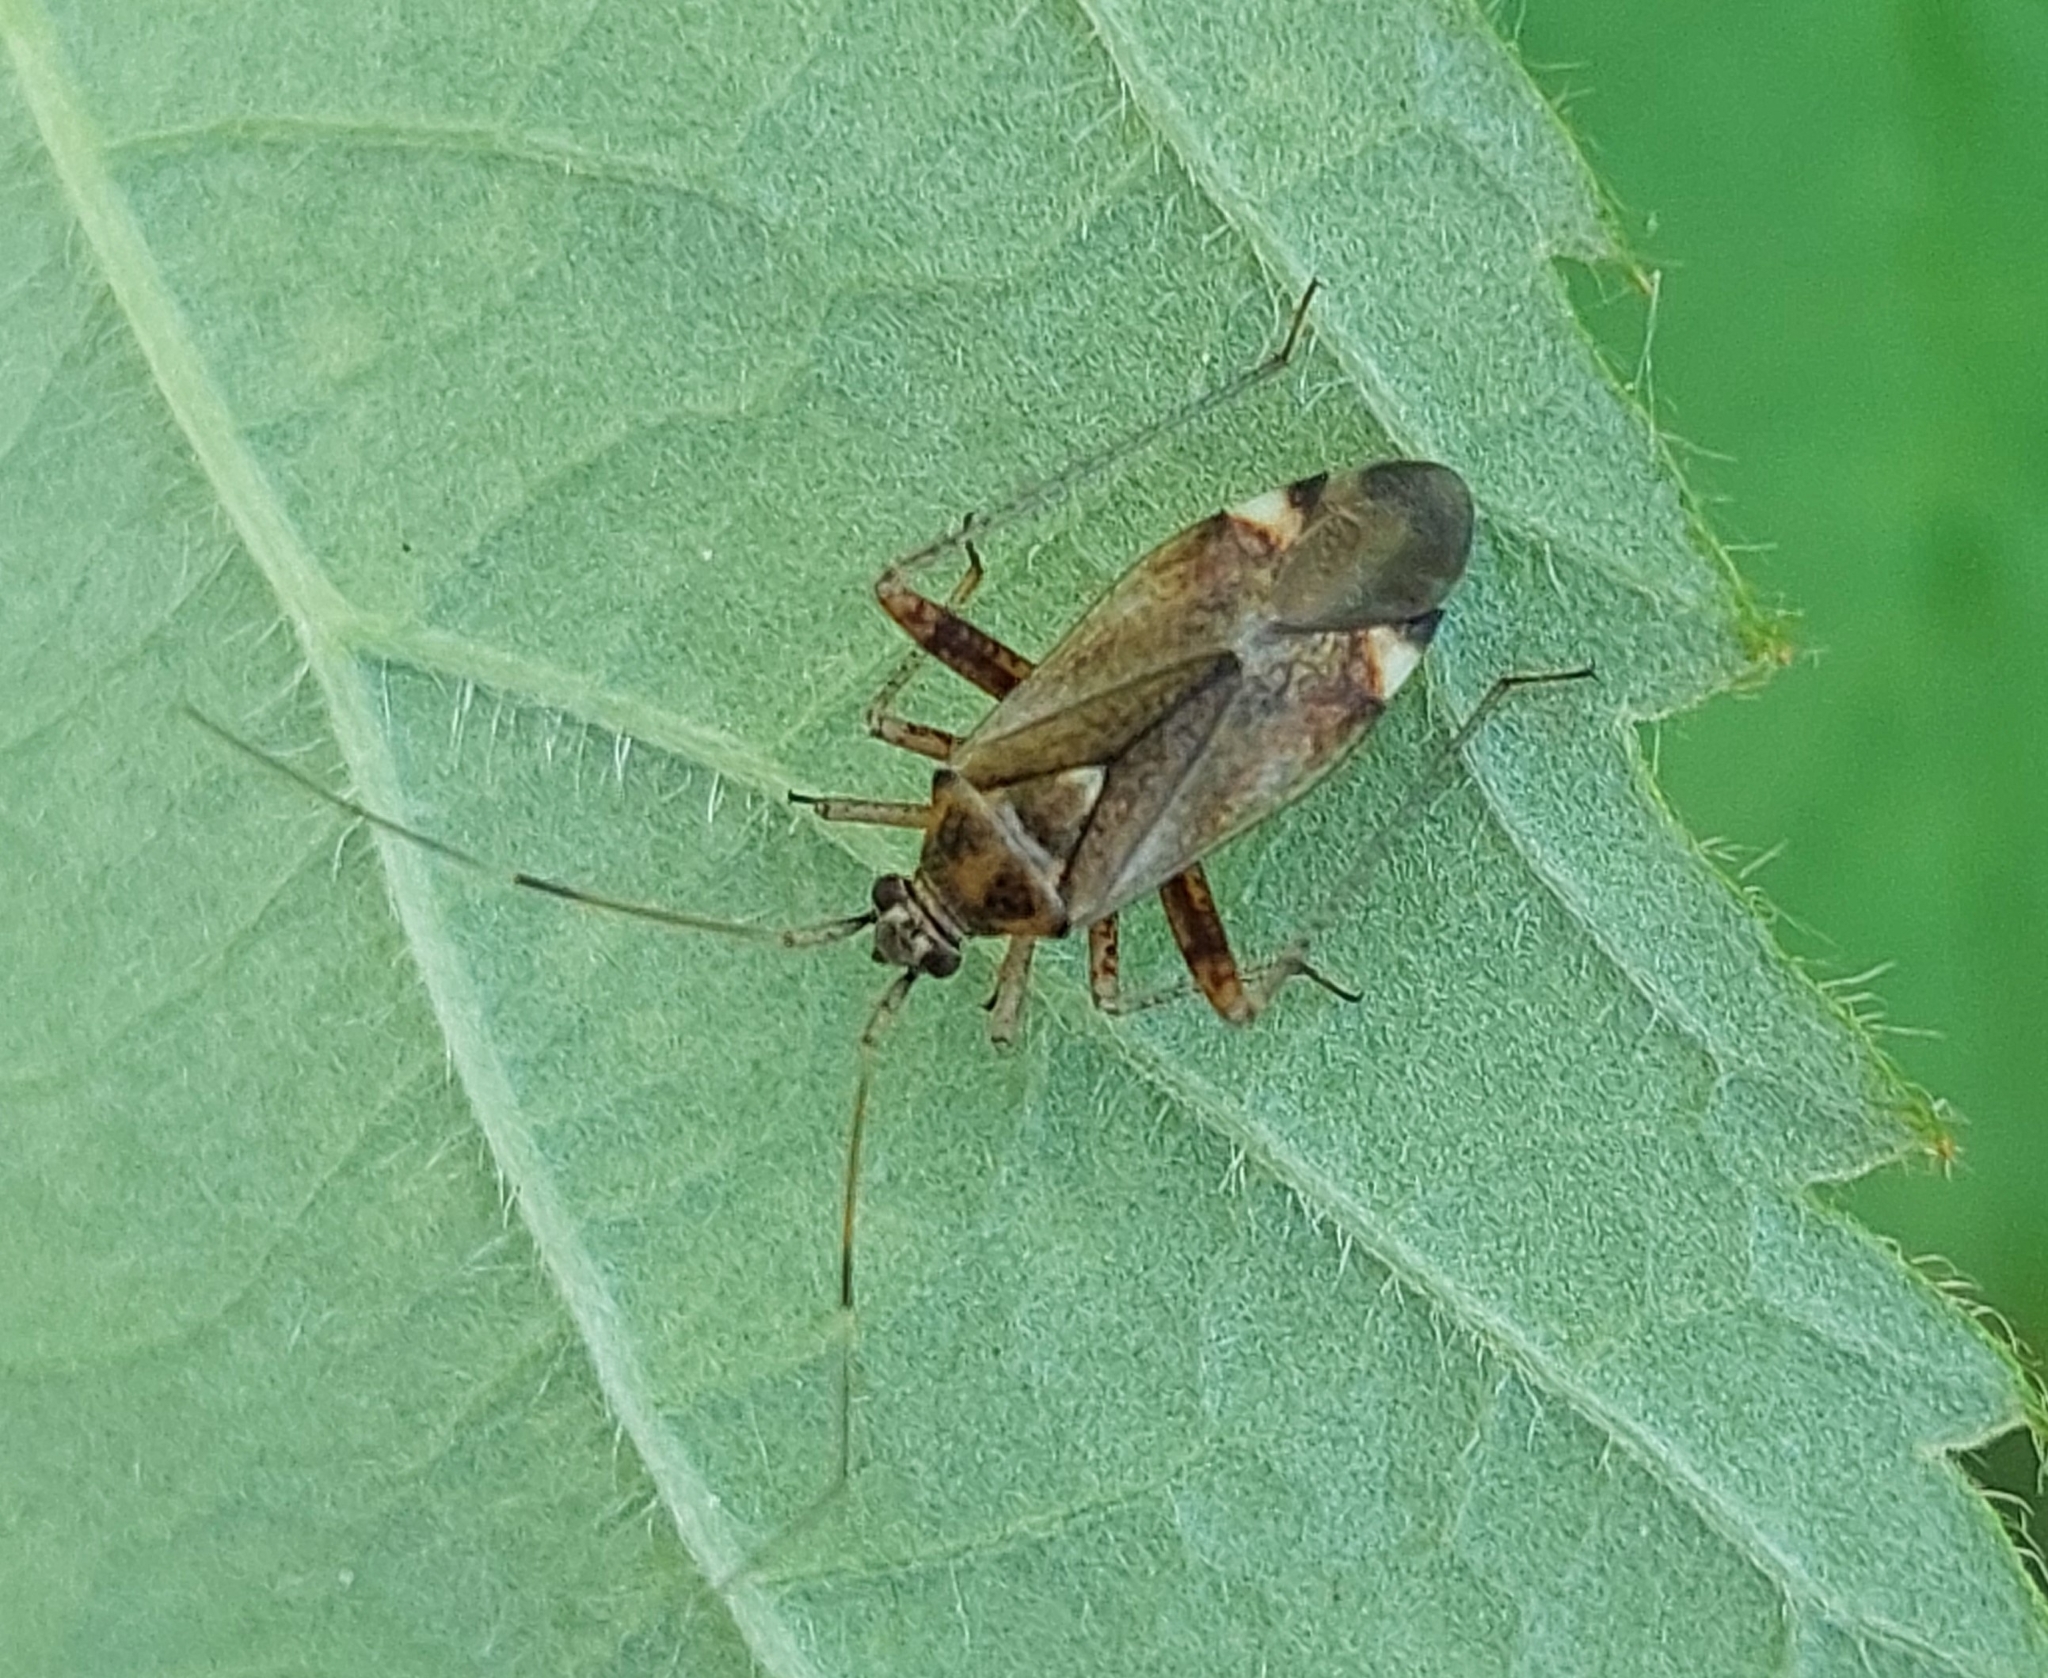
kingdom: Animalia
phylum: Arthropoda
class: Insecta
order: Hemiptera
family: Miridae
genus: Closterotomus
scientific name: Closterotomus fulvomaculatus
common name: Spotted plant bug
